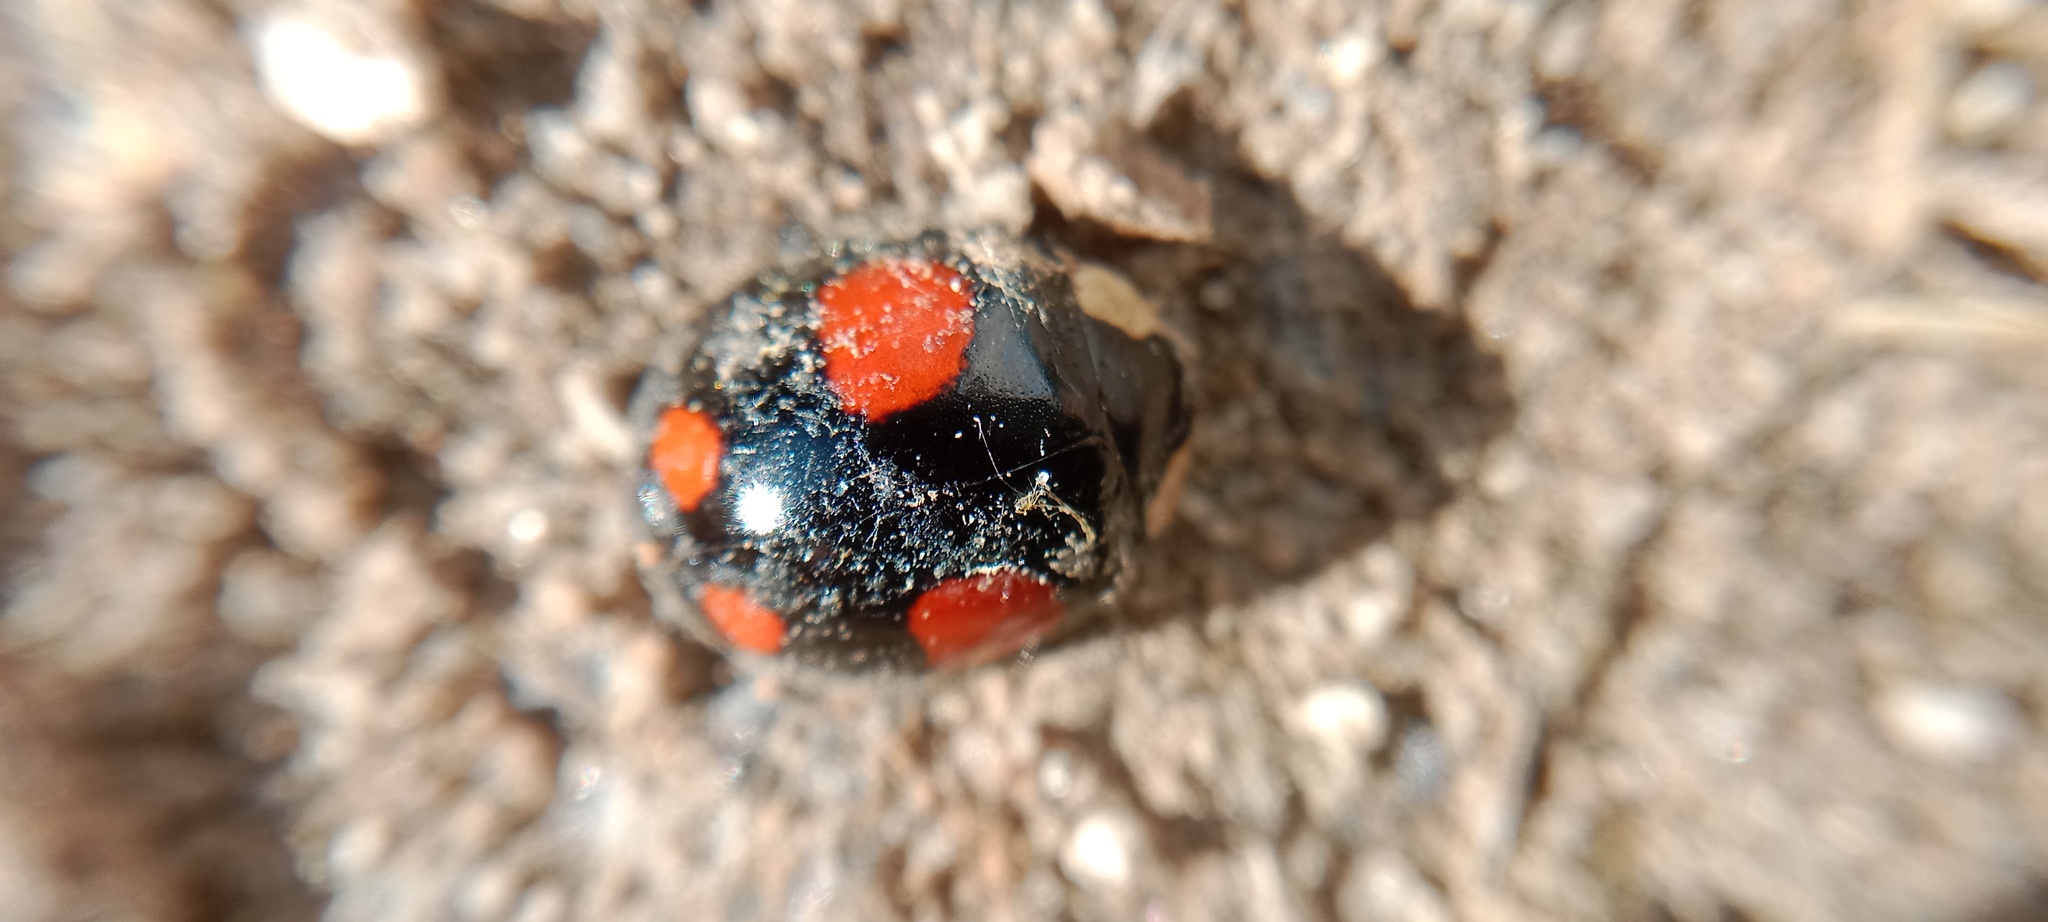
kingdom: Animalia
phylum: Arthropoda
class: Insecta
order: Coleoptera
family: Coccinellidae
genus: Harmonia
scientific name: Harmonia axyridis
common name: Harlequin ladybird
